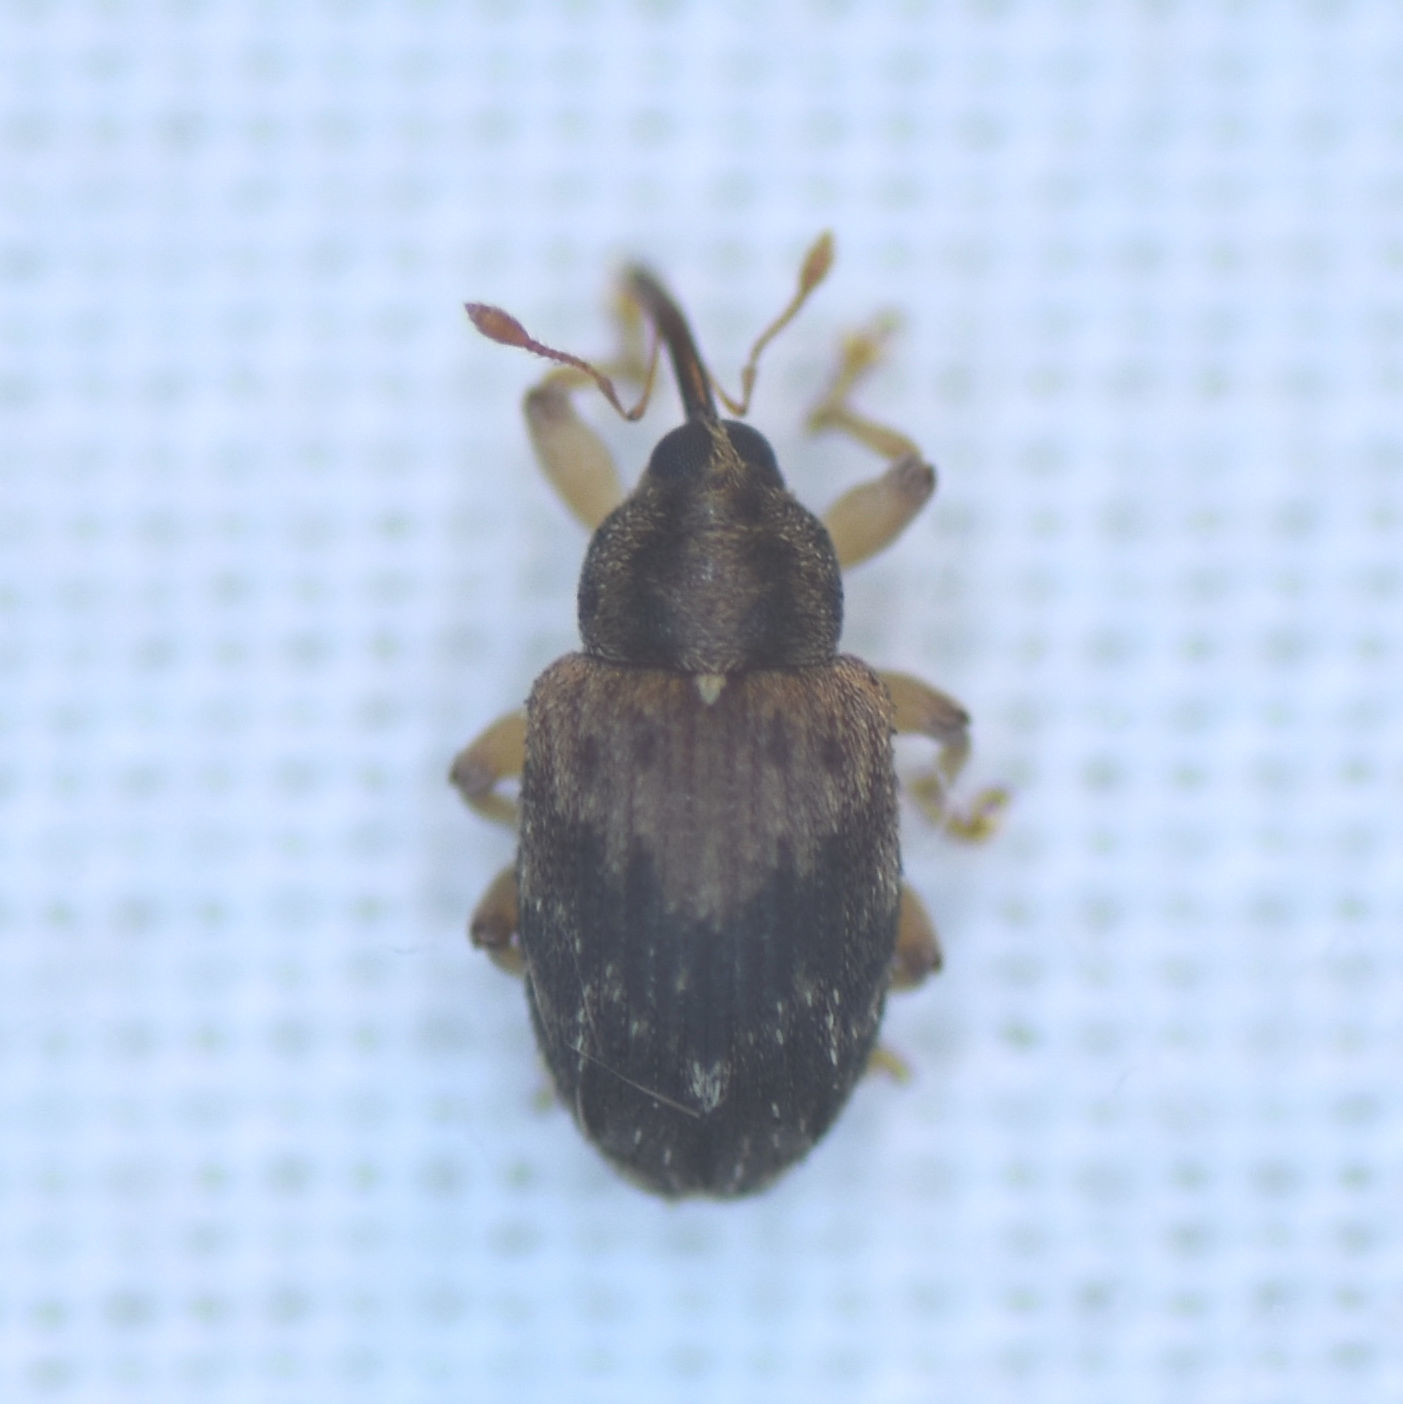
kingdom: Animalia
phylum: Arthropoda
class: Insecta
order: Coleoptera
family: Curculionidae
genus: Thysanocnemis
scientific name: Thysanocnemis bischoffi
